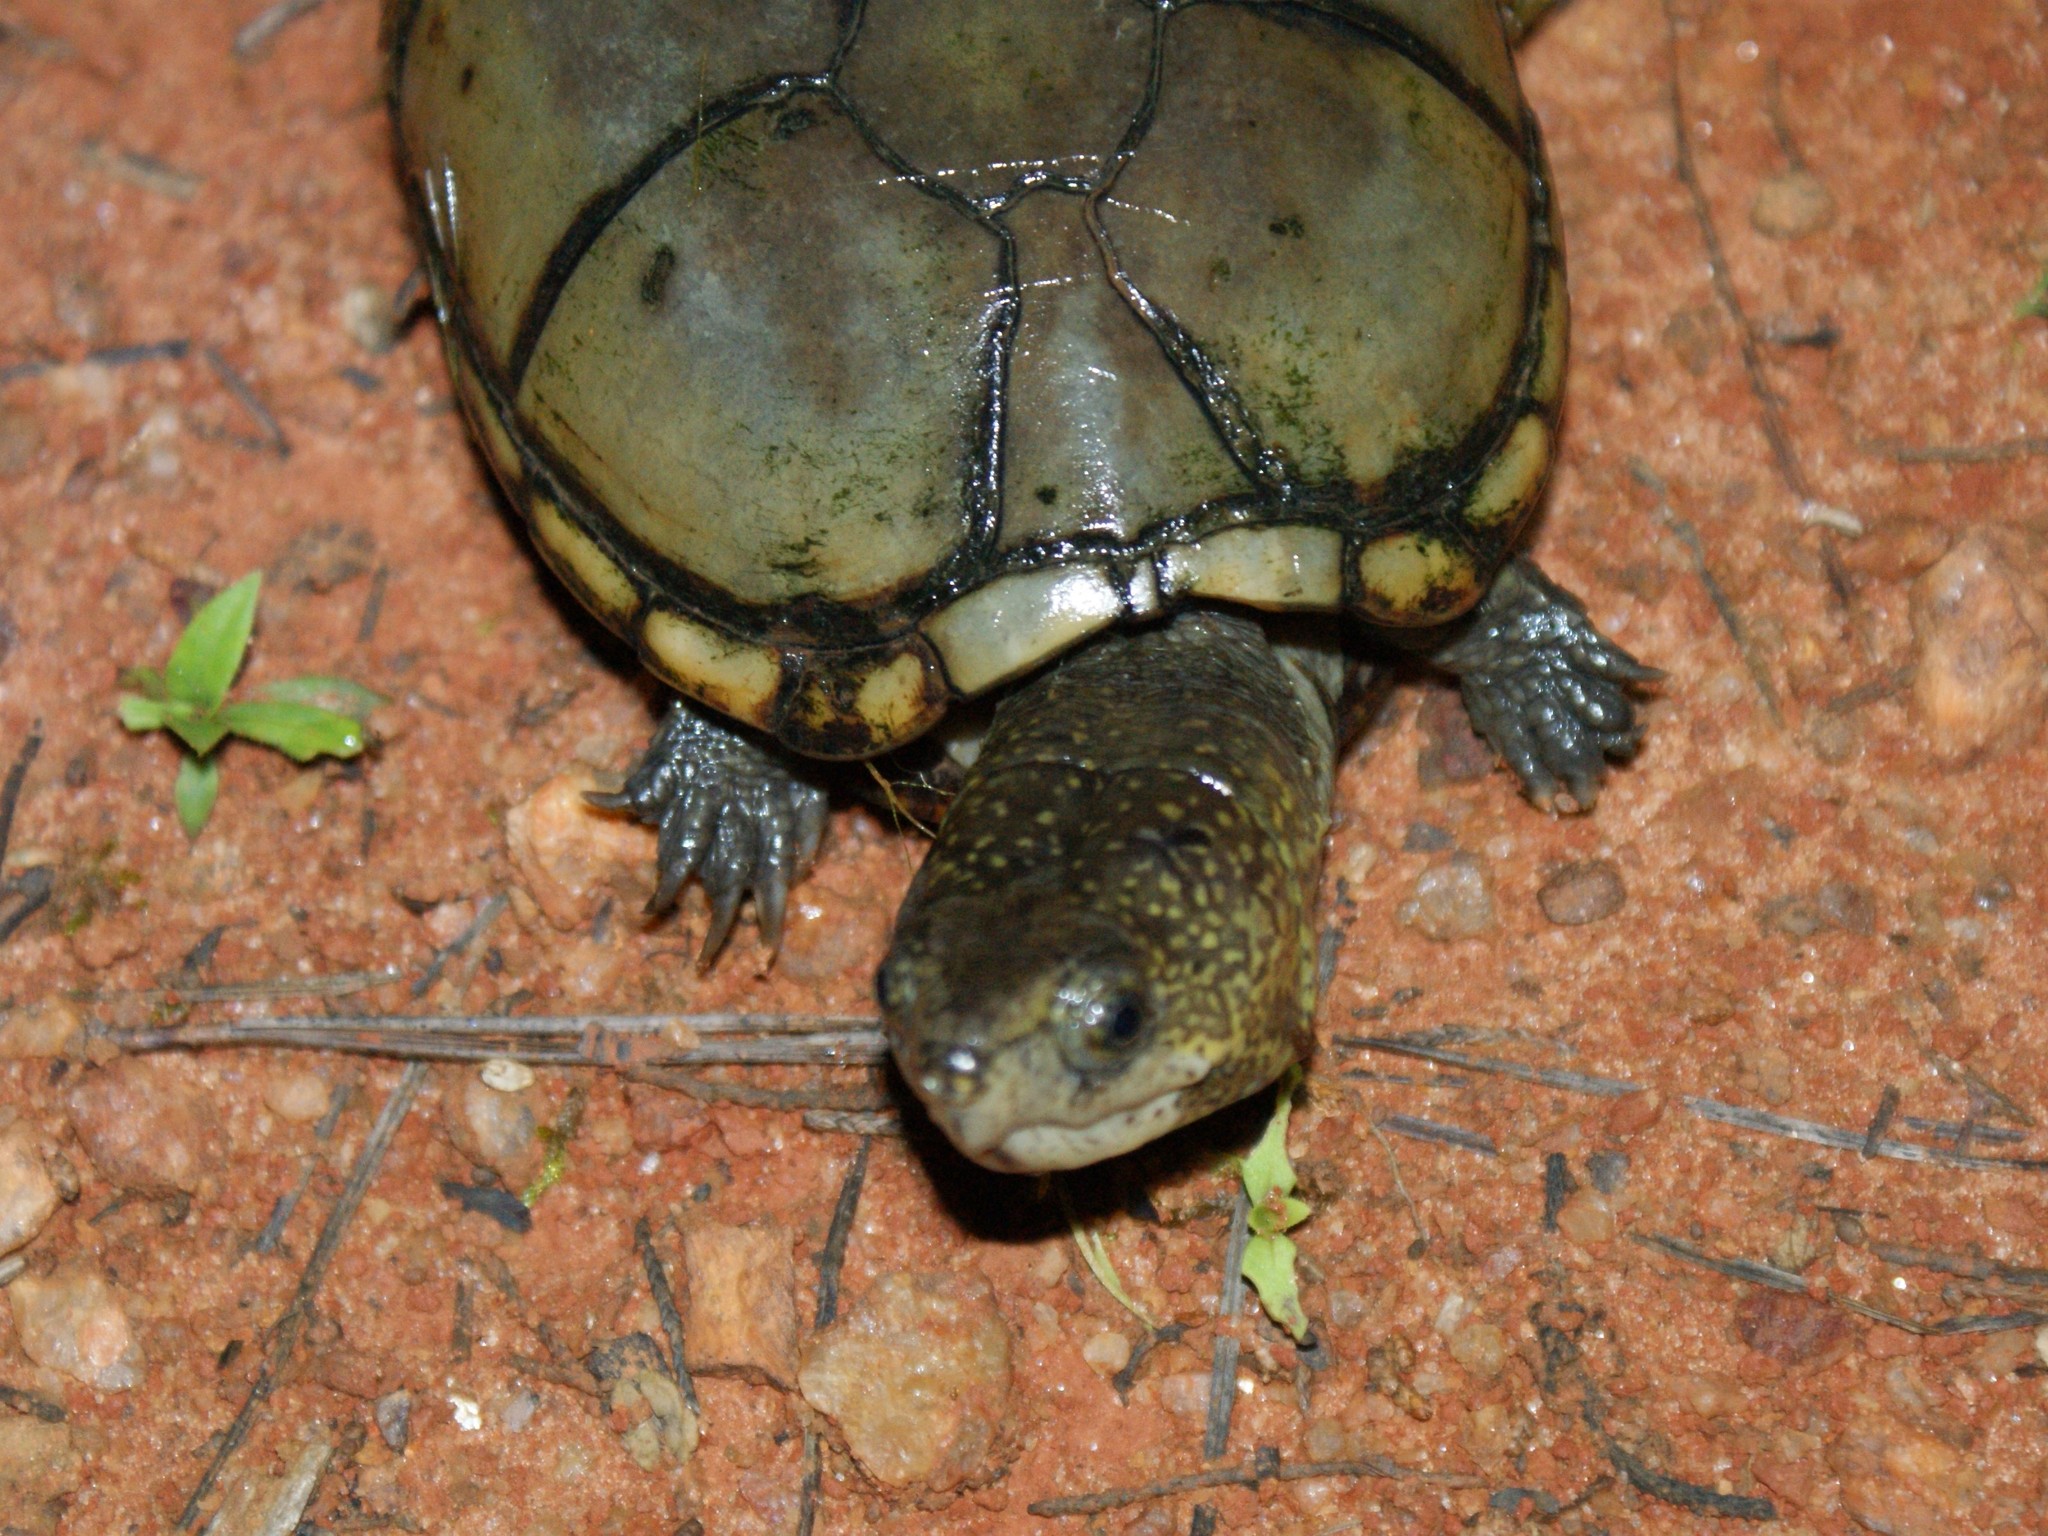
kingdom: Animalia
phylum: Chordata
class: Testudines
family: Kinosternidae
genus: Kinosternon
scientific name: Kinosternon subrubrum
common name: Eastern mud turtle
